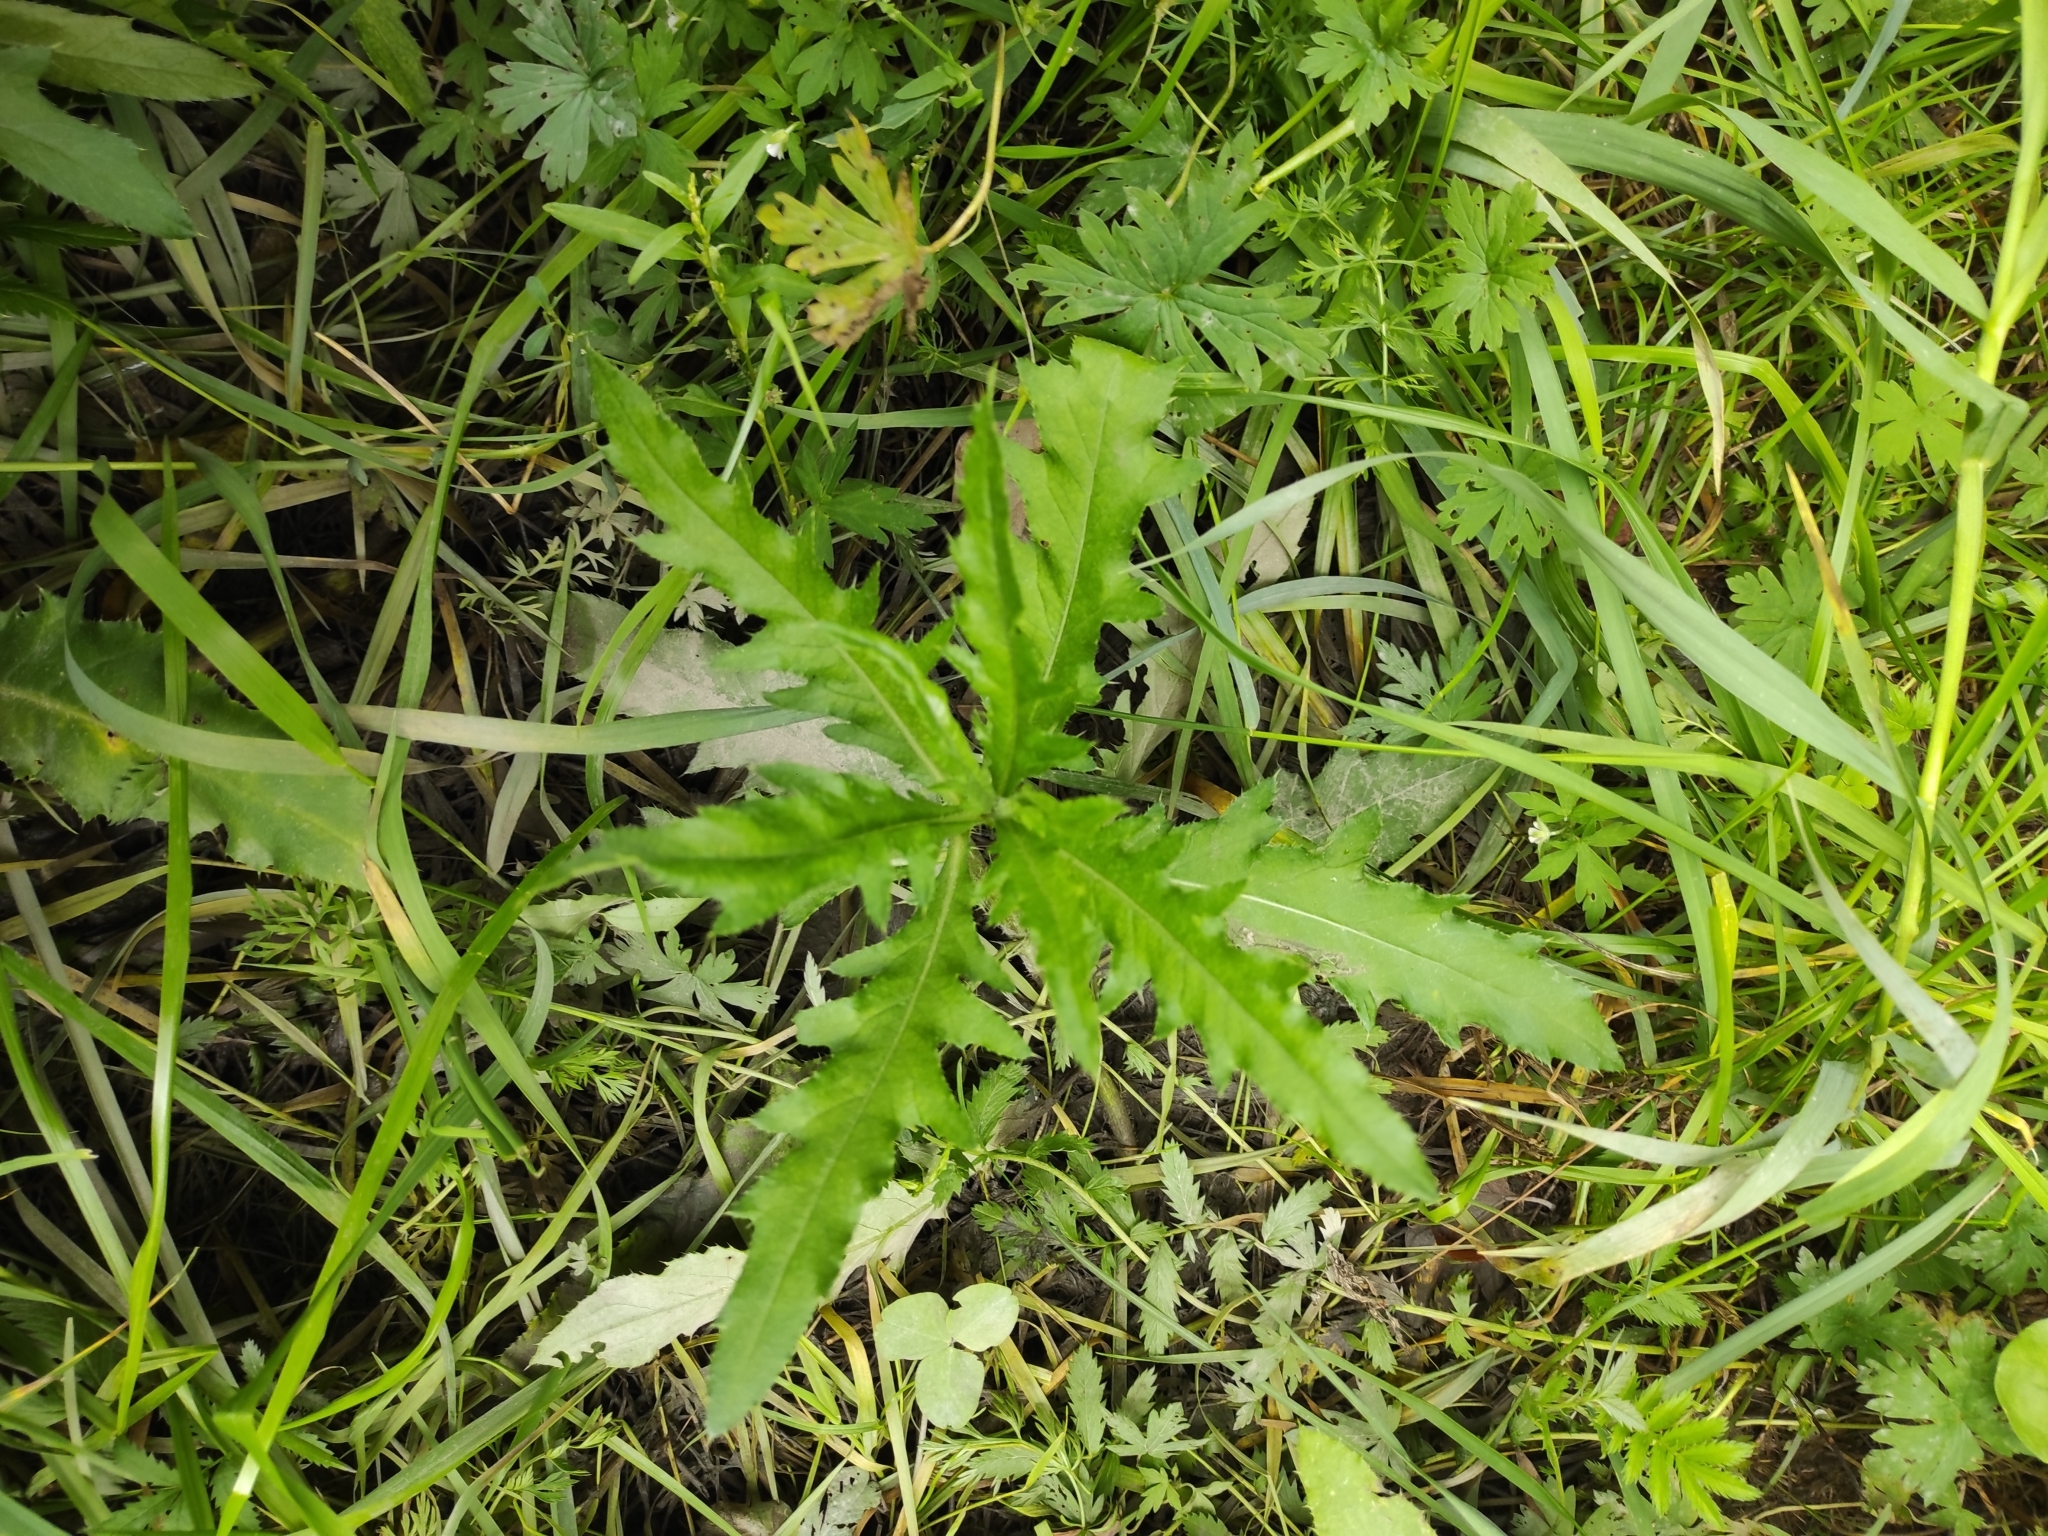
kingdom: Plantae
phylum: Tracheophyta
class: Magnoliopsida
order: Asterales
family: Asteraceae
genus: Cirsium
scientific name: Cirsium arvense
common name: Creeping thistle
